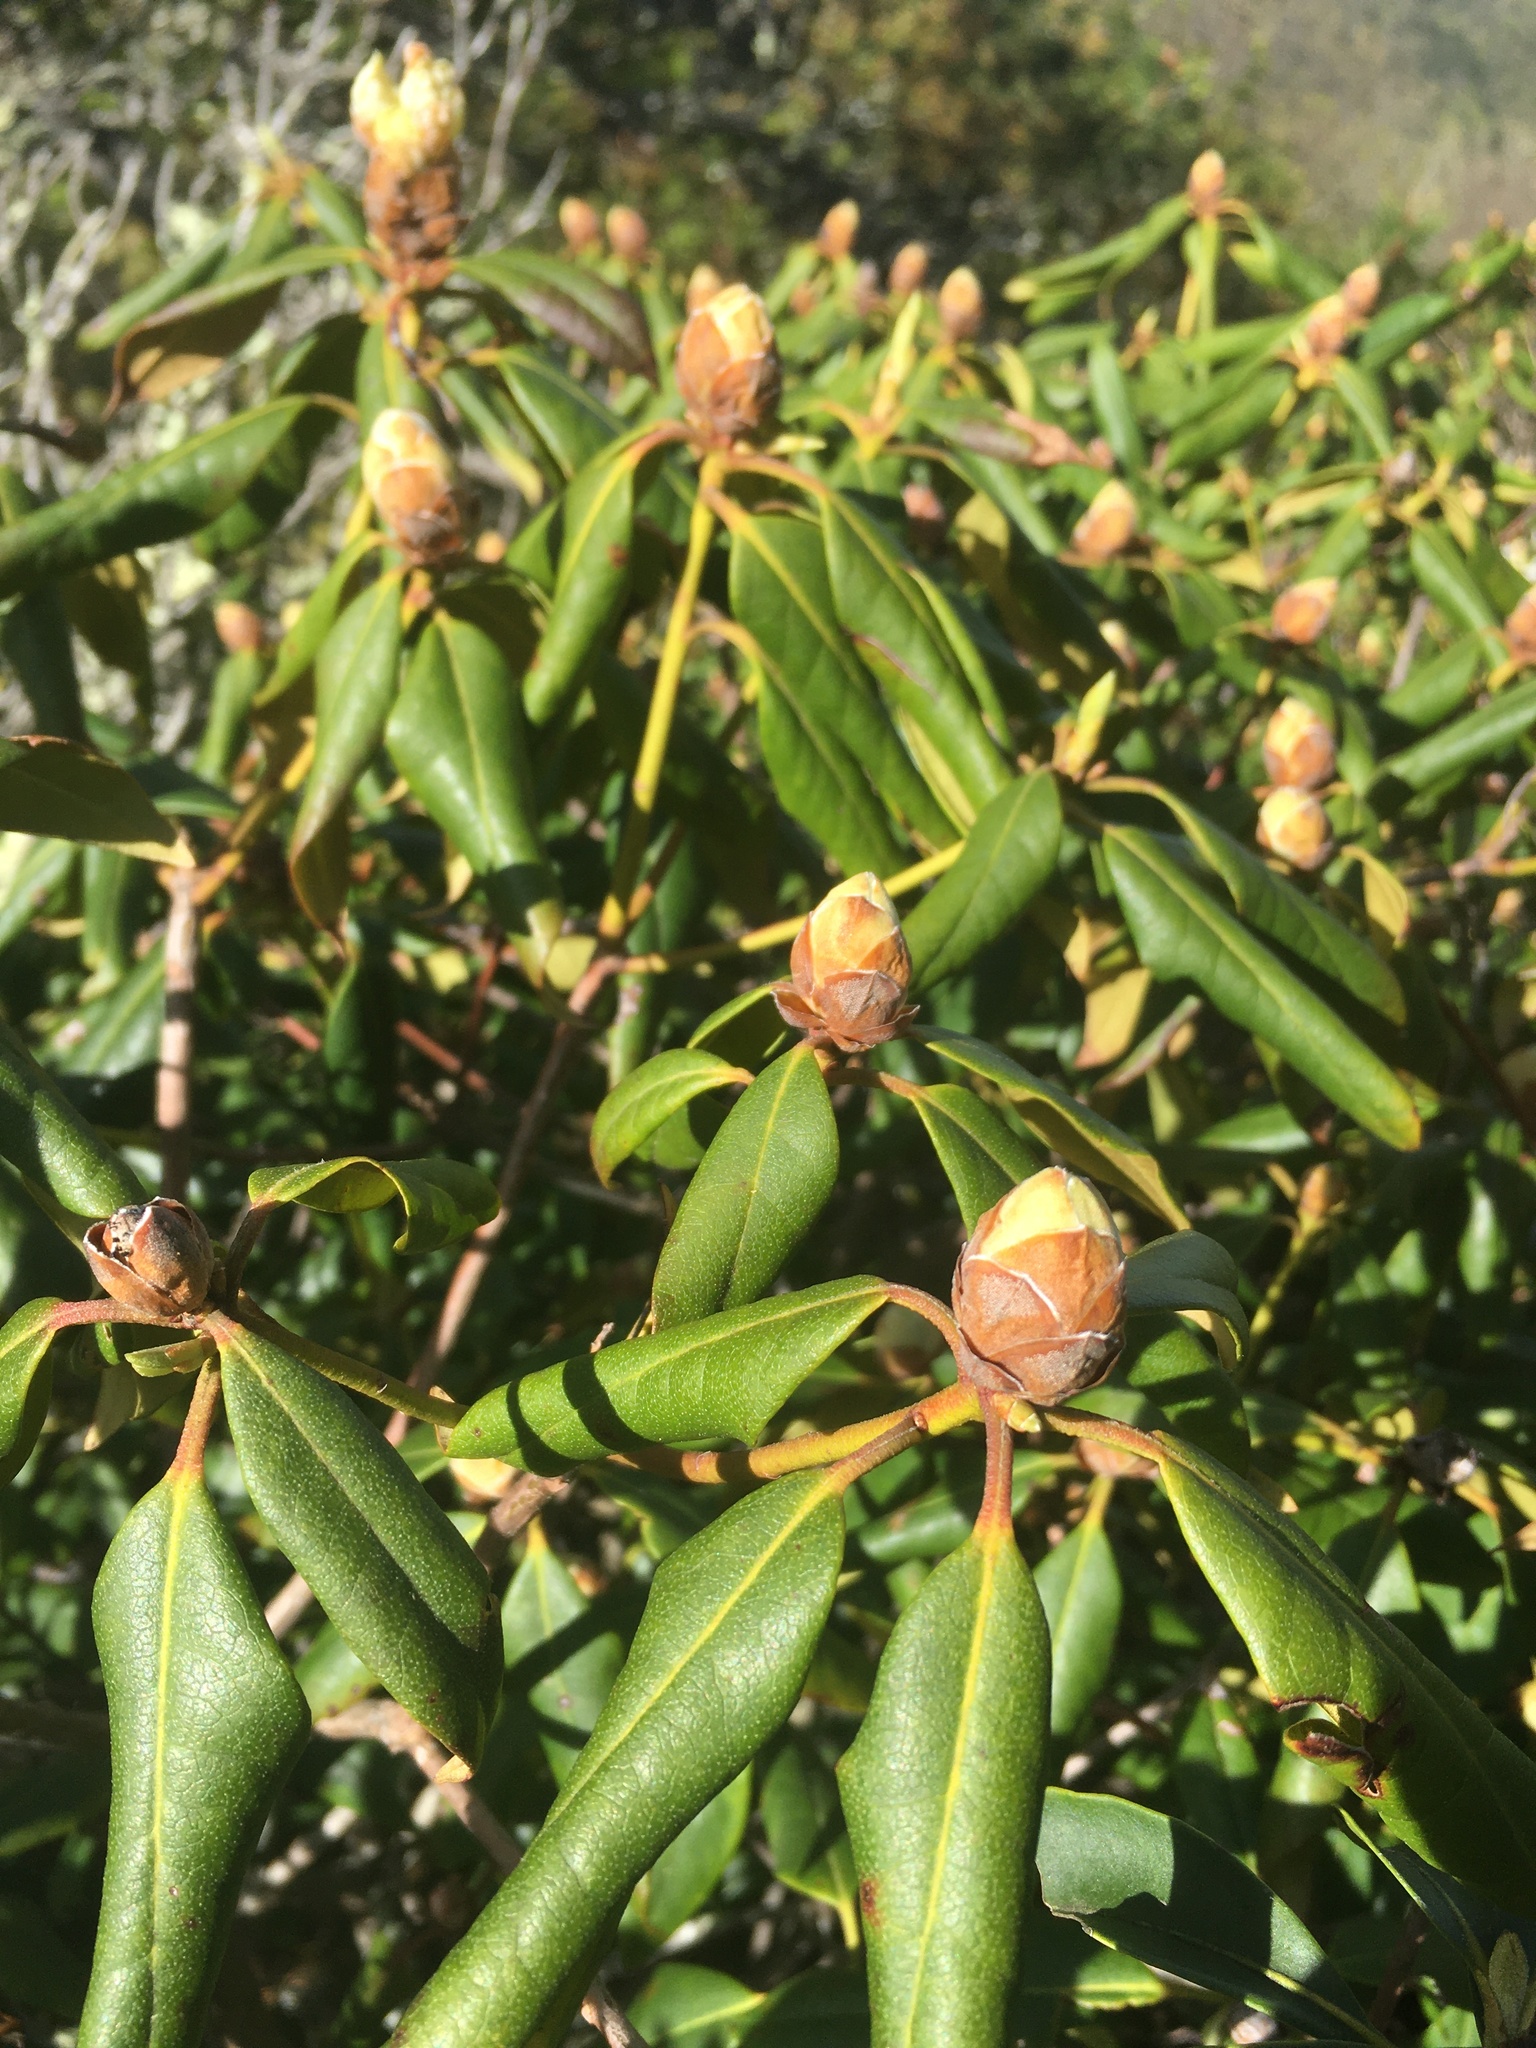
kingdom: Plantae
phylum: Tracheophyta
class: Magnoliopsida
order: Ericales
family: Ericaceae
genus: Rhododendron
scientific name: Rhododendron minus
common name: Piedmont rhododendron
